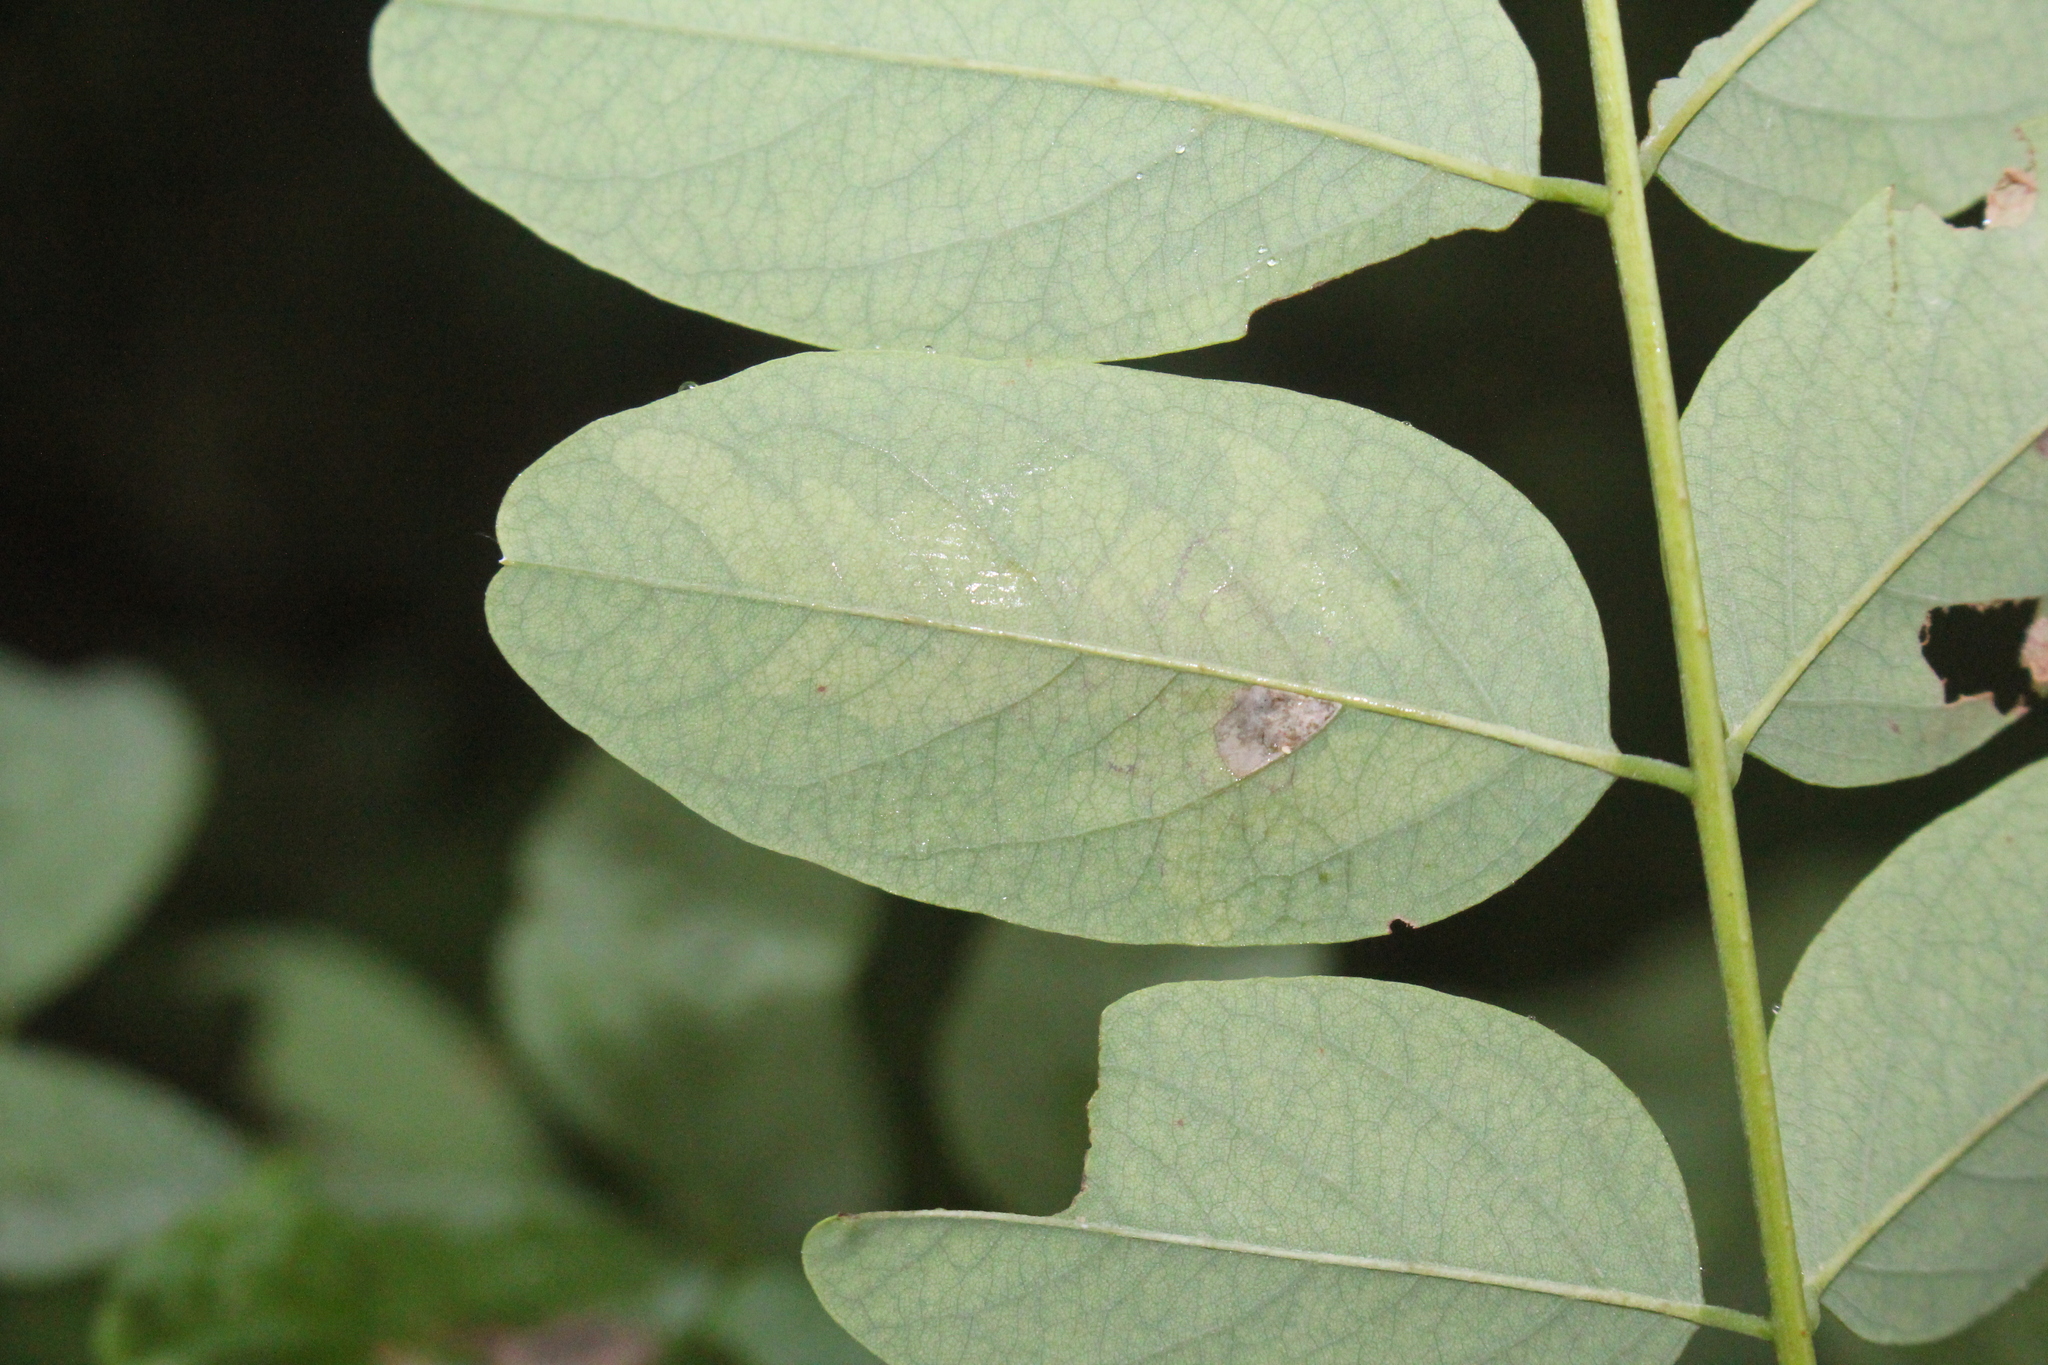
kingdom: Animalia
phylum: Arthropoda
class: Insecta
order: Lepidoptera
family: Gracillariidae
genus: Parectopa
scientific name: Parectopa robiniella
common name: Locust digitate leafminer
